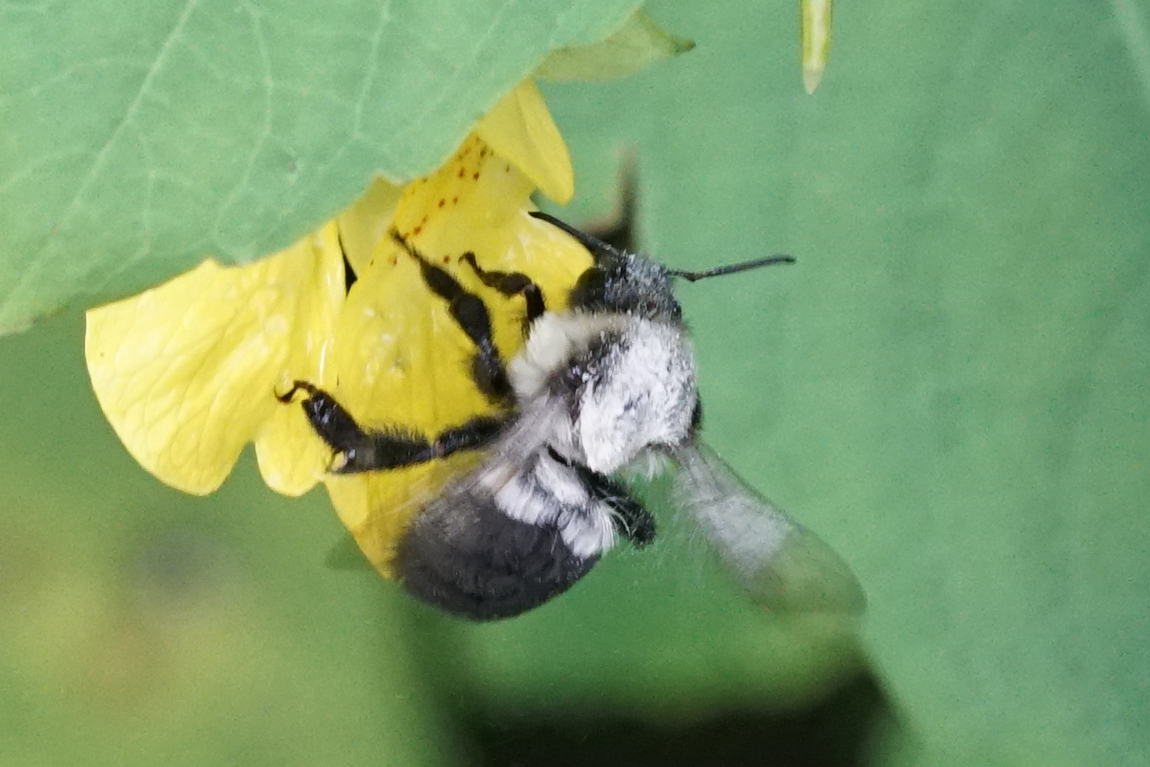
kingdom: Animalia
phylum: Arthropoda
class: Insecta
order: Hymenoptera
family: Apidae
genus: Bombus
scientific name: Bombus impatiens
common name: Common eastern bumble bee
